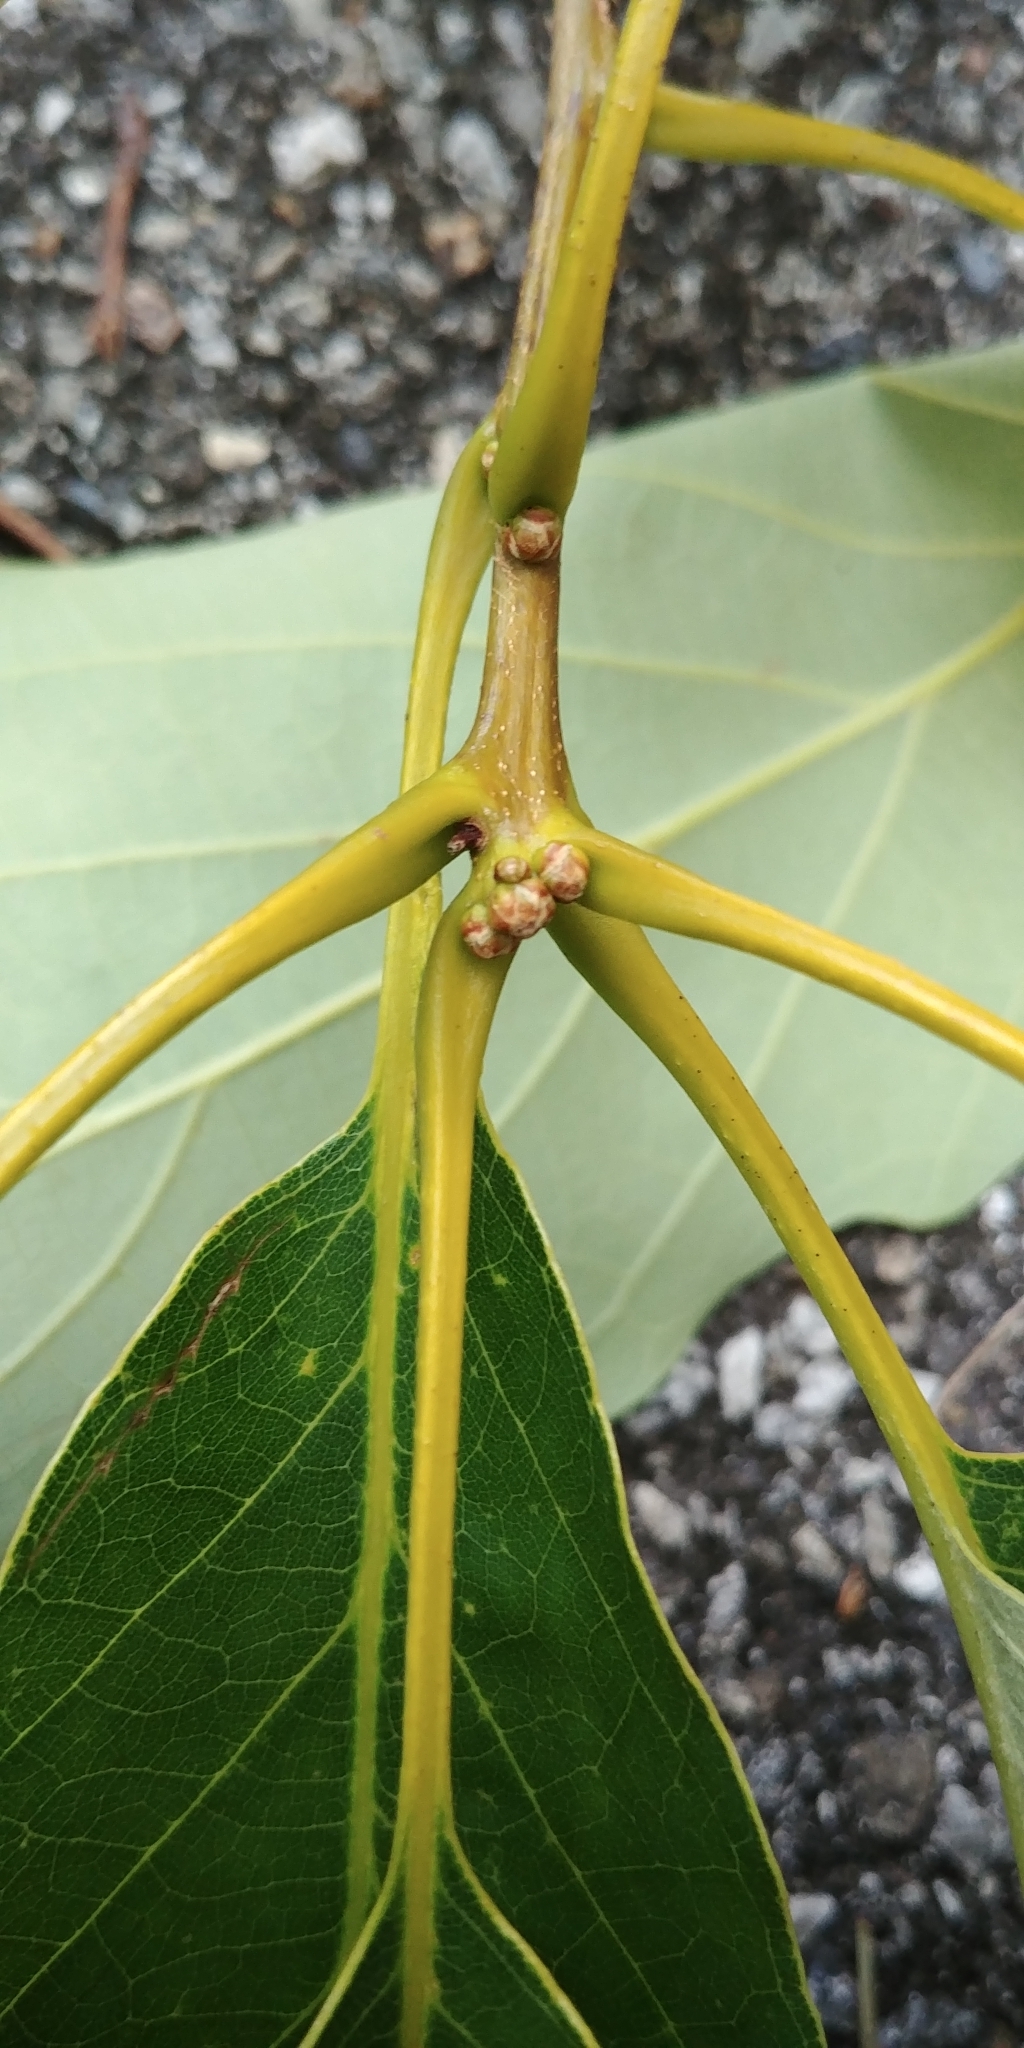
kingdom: Plantae
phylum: Tracheophyta
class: Magnoliopsida
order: Fagales
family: Fagaceae
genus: Quercus
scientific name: Quercus montana
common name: Chestnut oak
